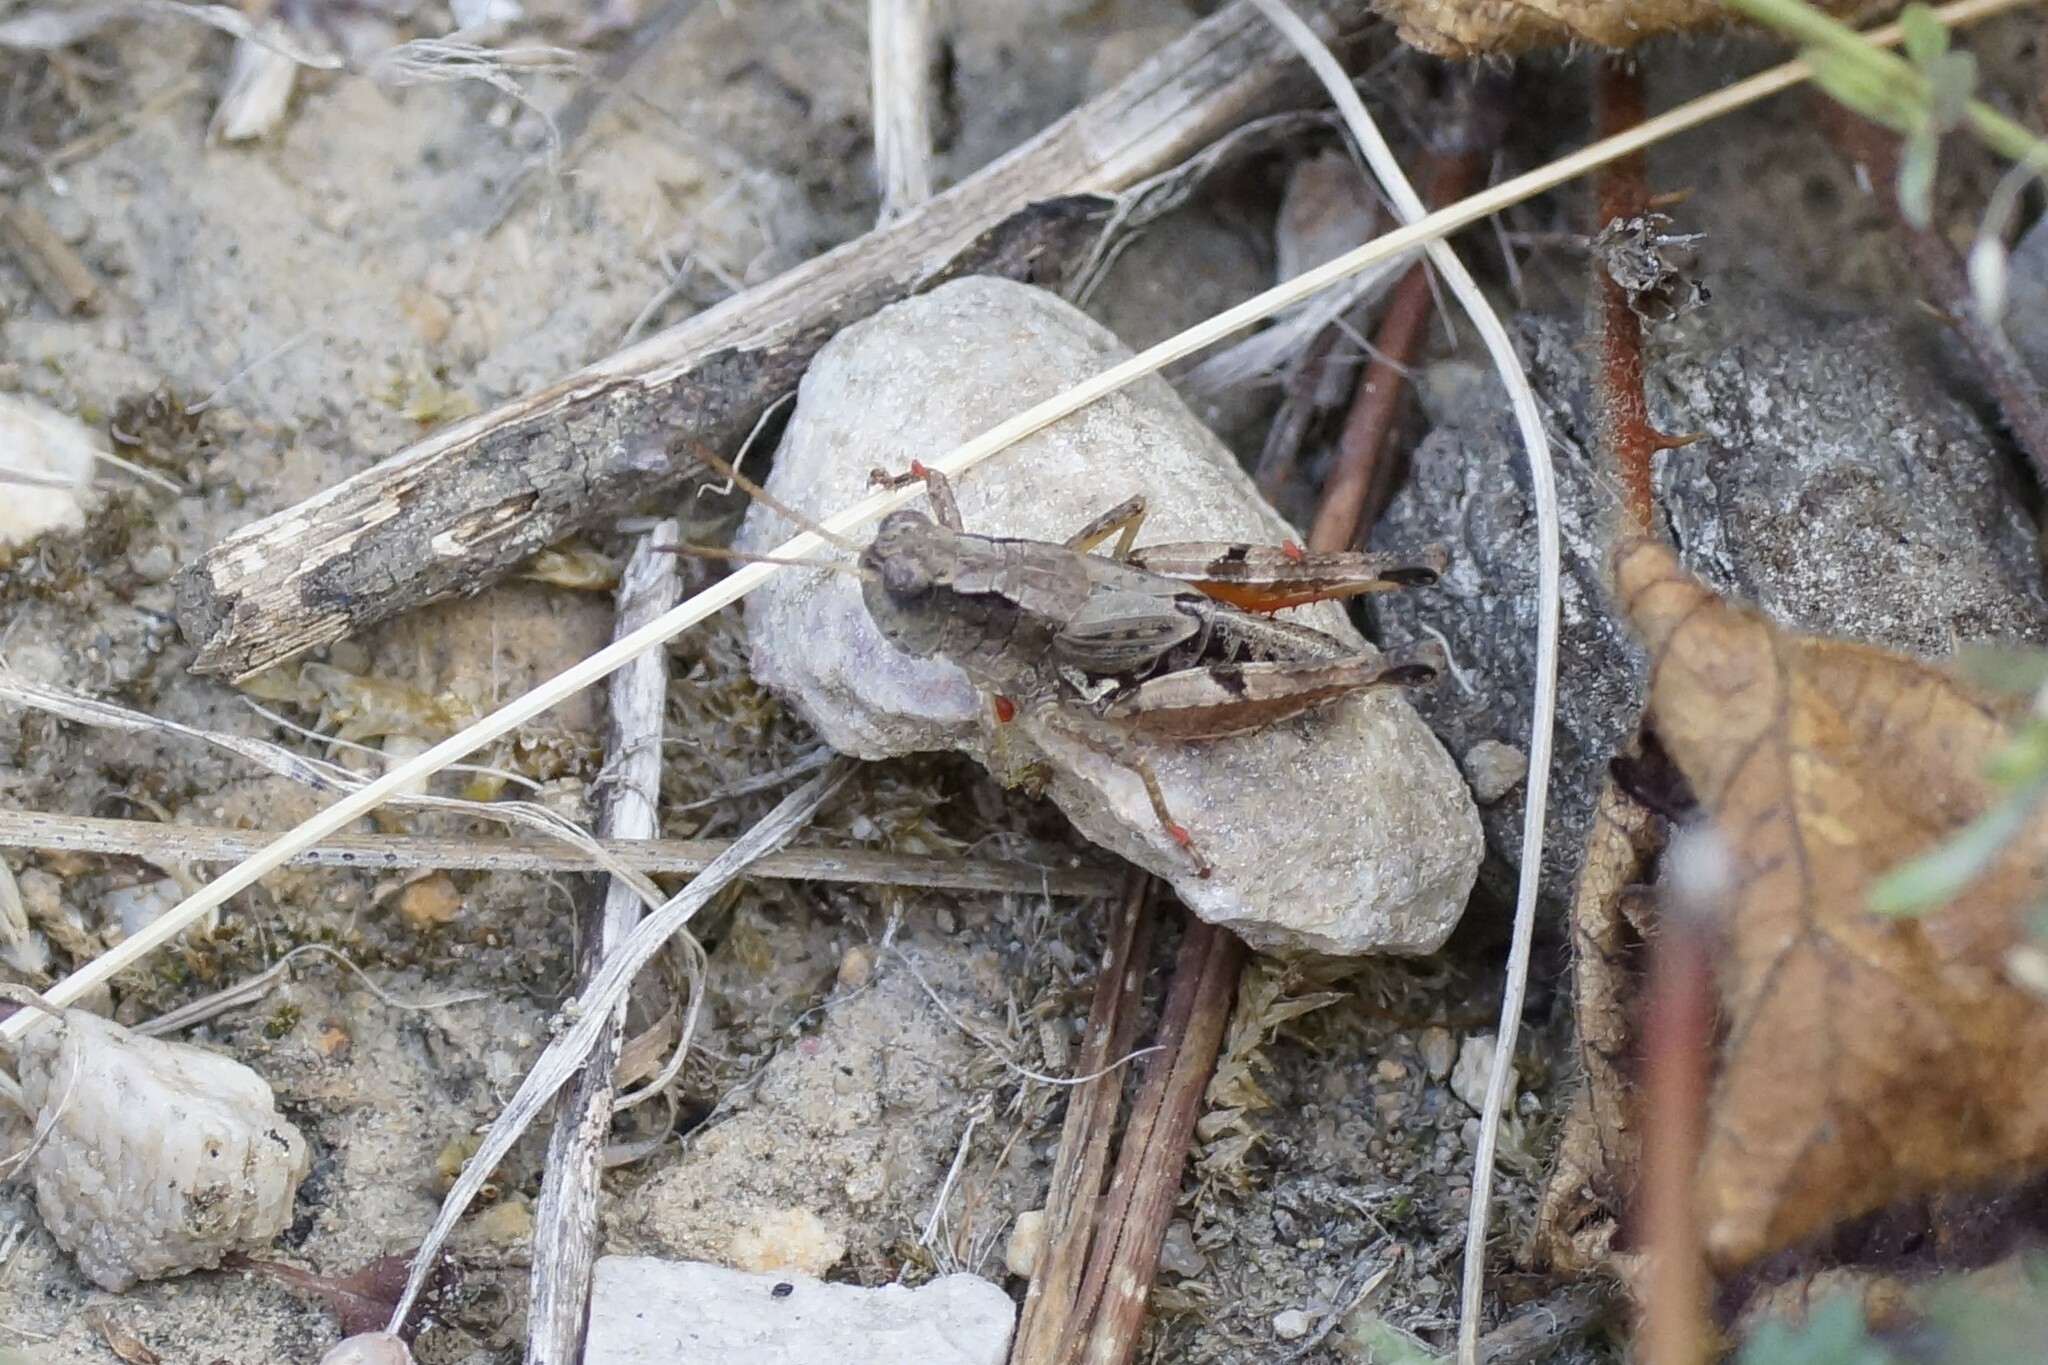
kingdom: Animalia
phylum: Arthropoda
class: Insecta
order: Orthoptera
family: Acrididae
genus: Phaulacridium
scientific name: Phaulacridium vittatum
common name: Wingless grasshopper
